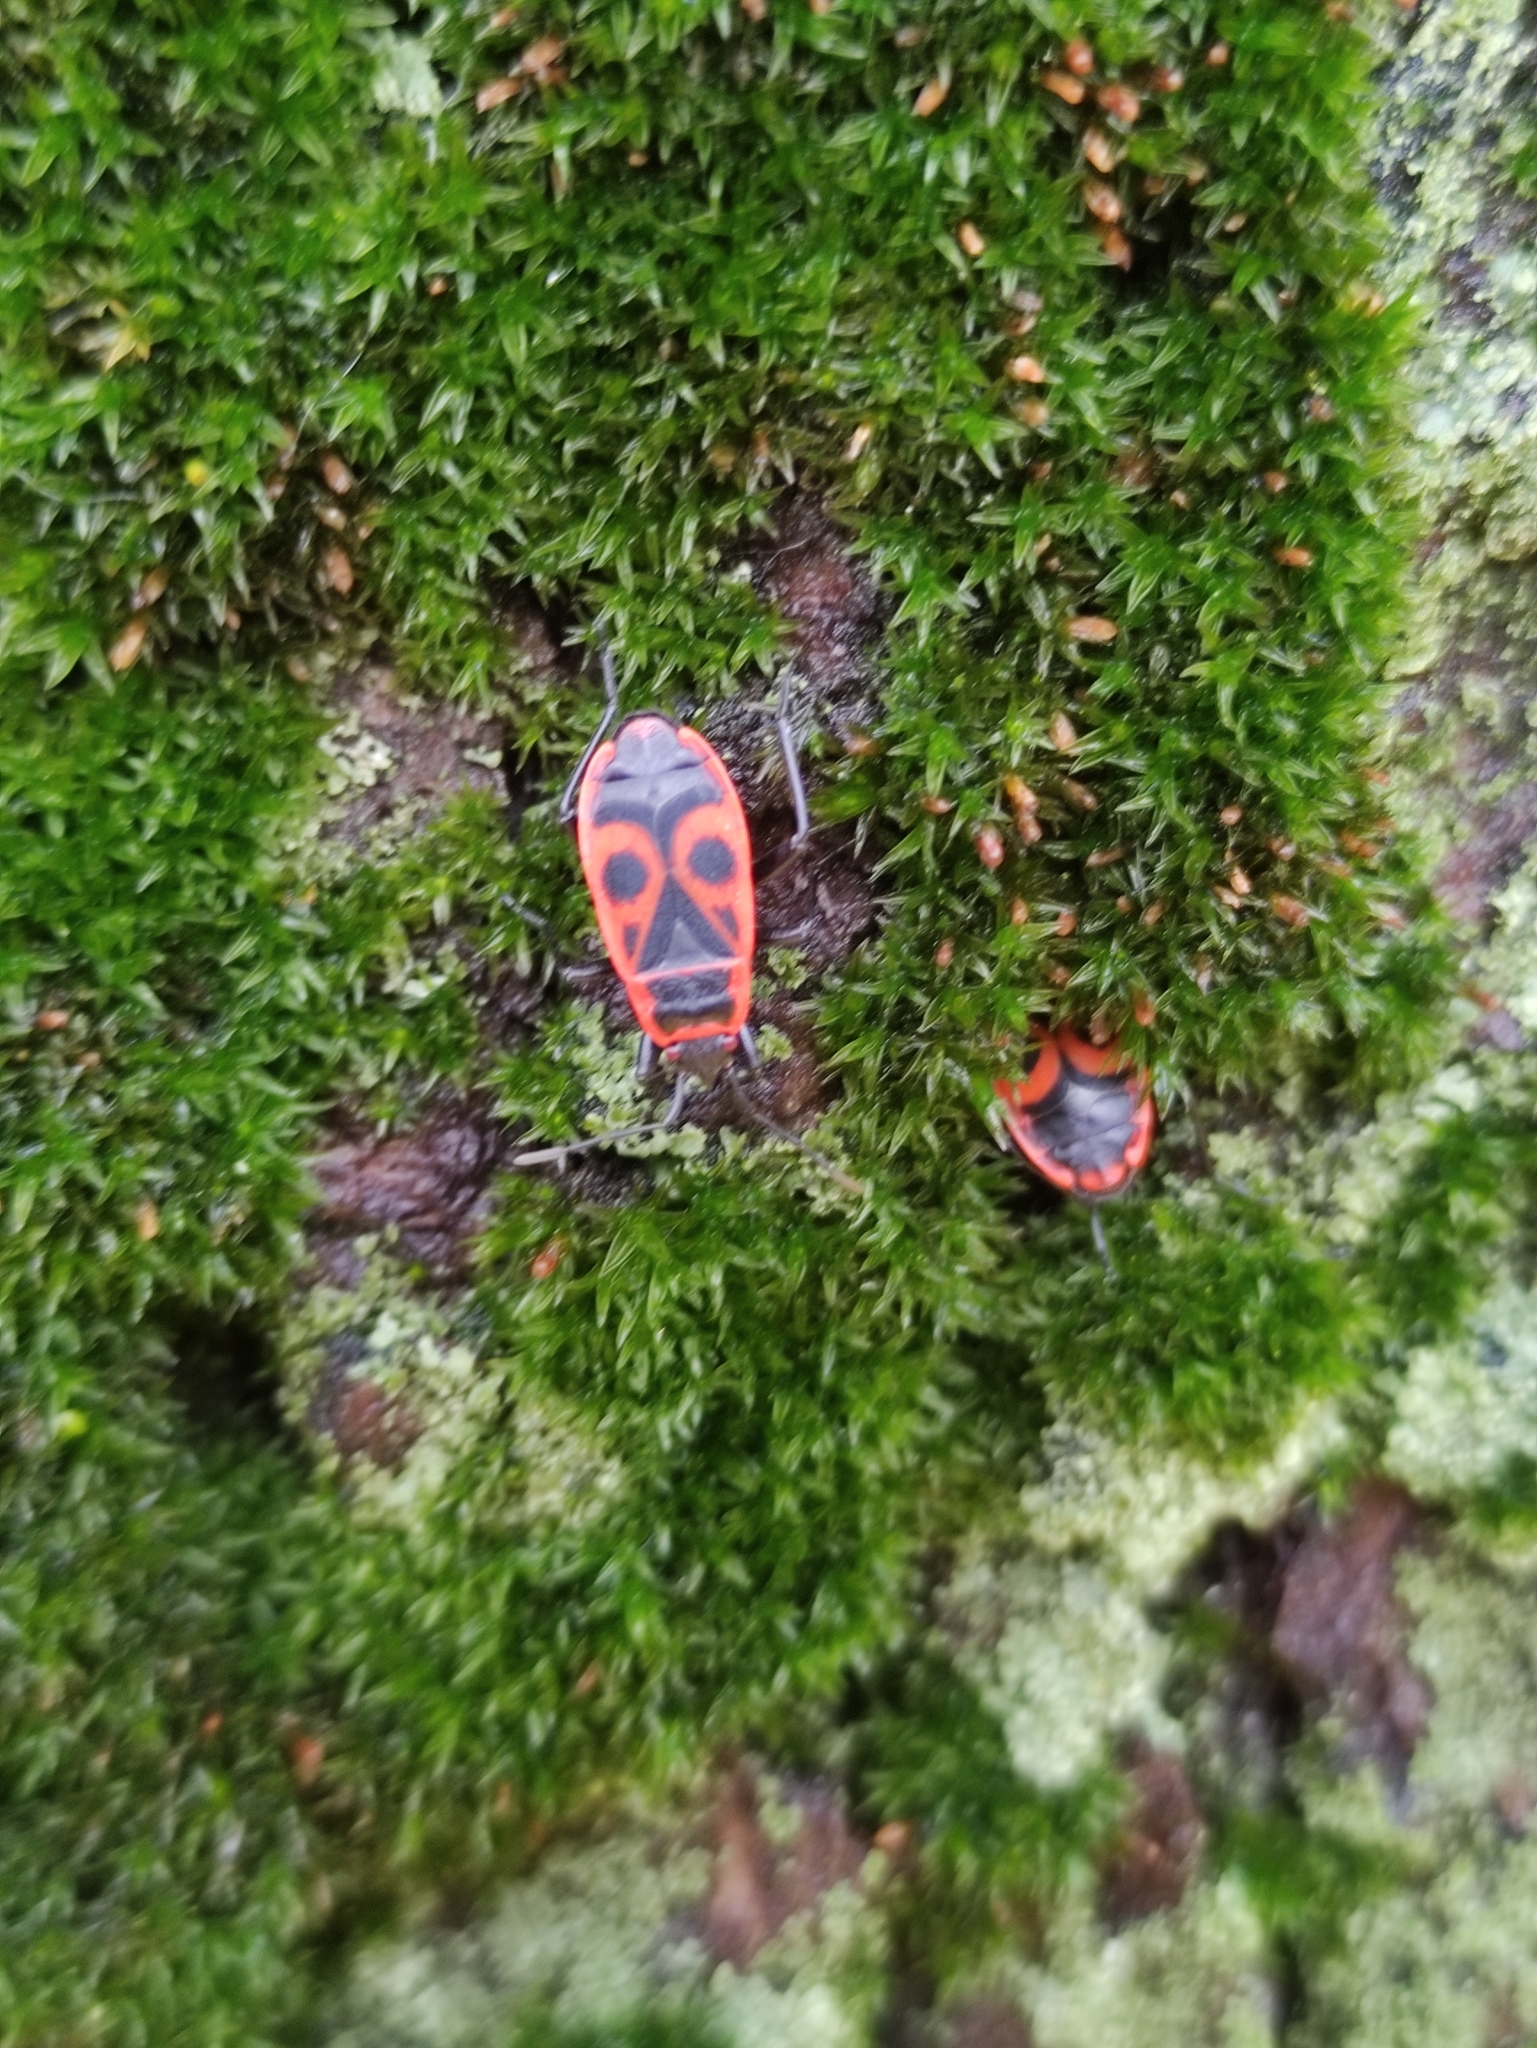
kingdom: Animalia
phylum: Arthropoda
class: Insecta
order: Hemiptera
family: Pyrrhocoridae
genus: Pyrrhocoris
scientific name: Pyrrhocoris apterus
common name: Firebug
